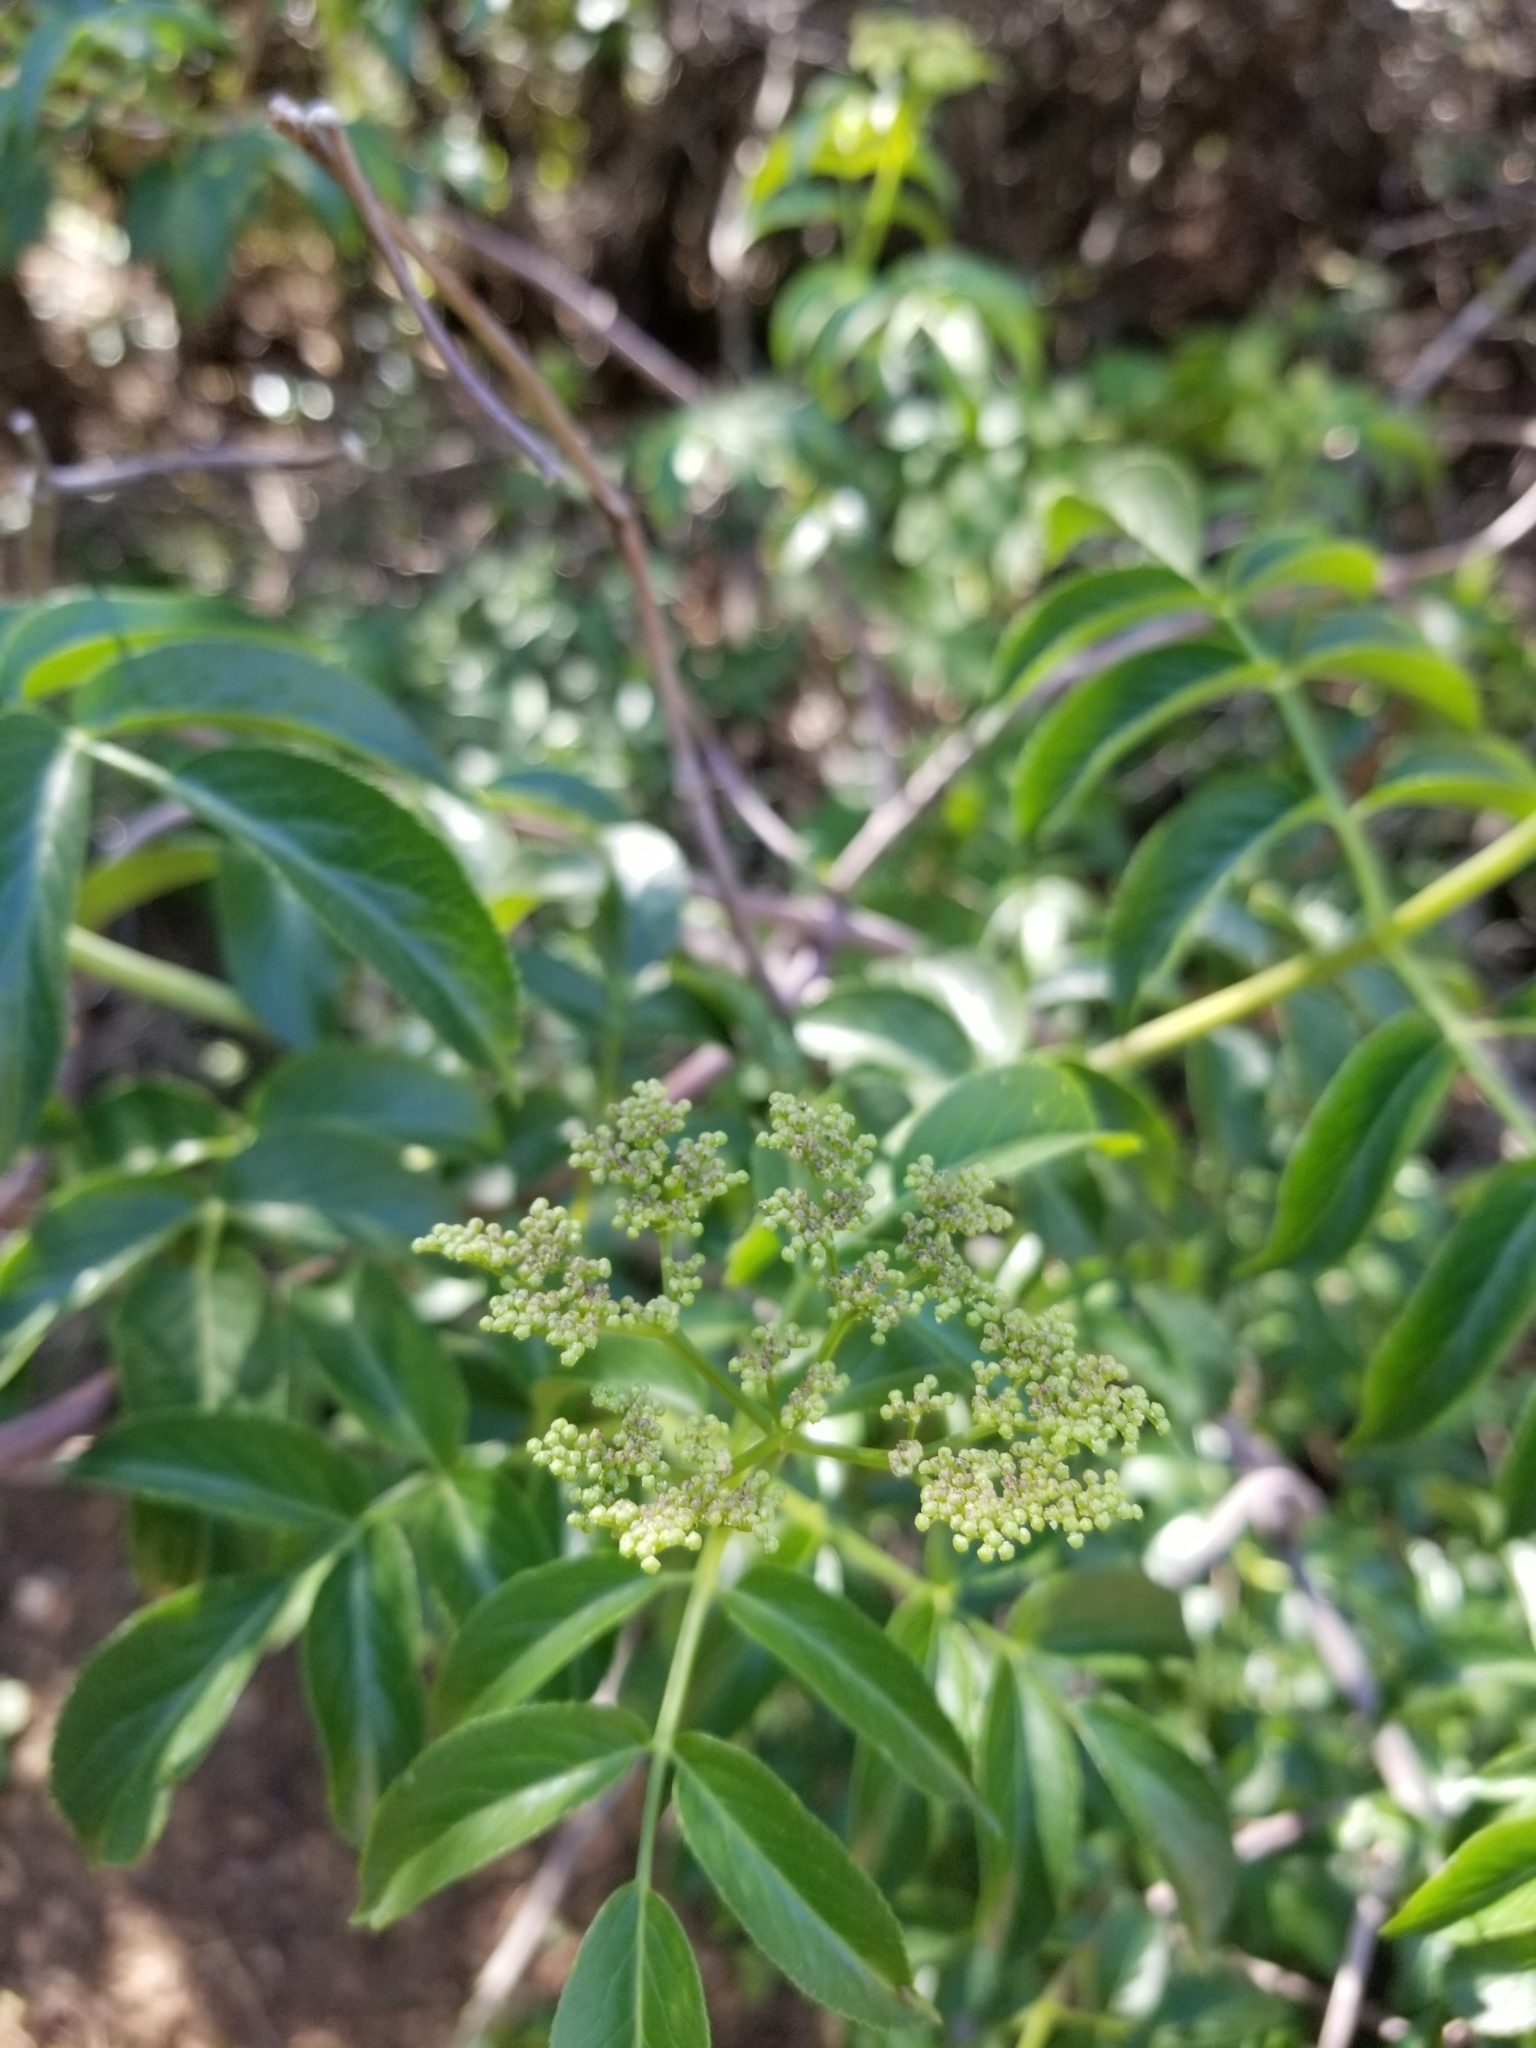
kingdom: Plantae
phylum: Tracheophyta
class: Magnoliopsida
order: Dipsacales
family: Viburnaceae
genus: Sambucus
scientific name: Sambucus cerulea
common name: Blue elder
